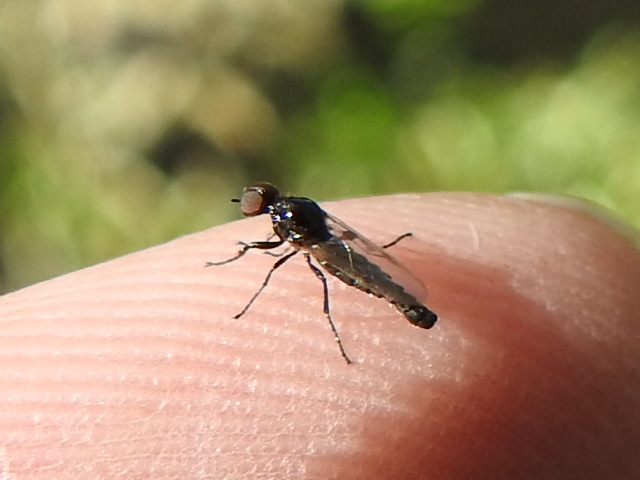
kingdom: Animalia
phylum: Arthropoda
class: Insecta
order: Diptera
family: Bibionidae
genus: Dilophus
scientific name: Dilophus tibialis
